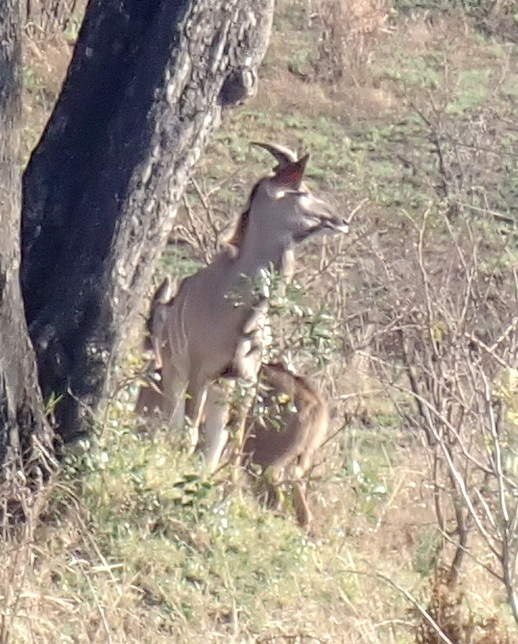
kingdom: Animalia
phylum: Chordata
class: Mammalia
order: Artiodactyla
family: Bovidae
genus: Tragelaphus
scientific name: Tragelaphus strepsiceros
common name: Greater kudu
